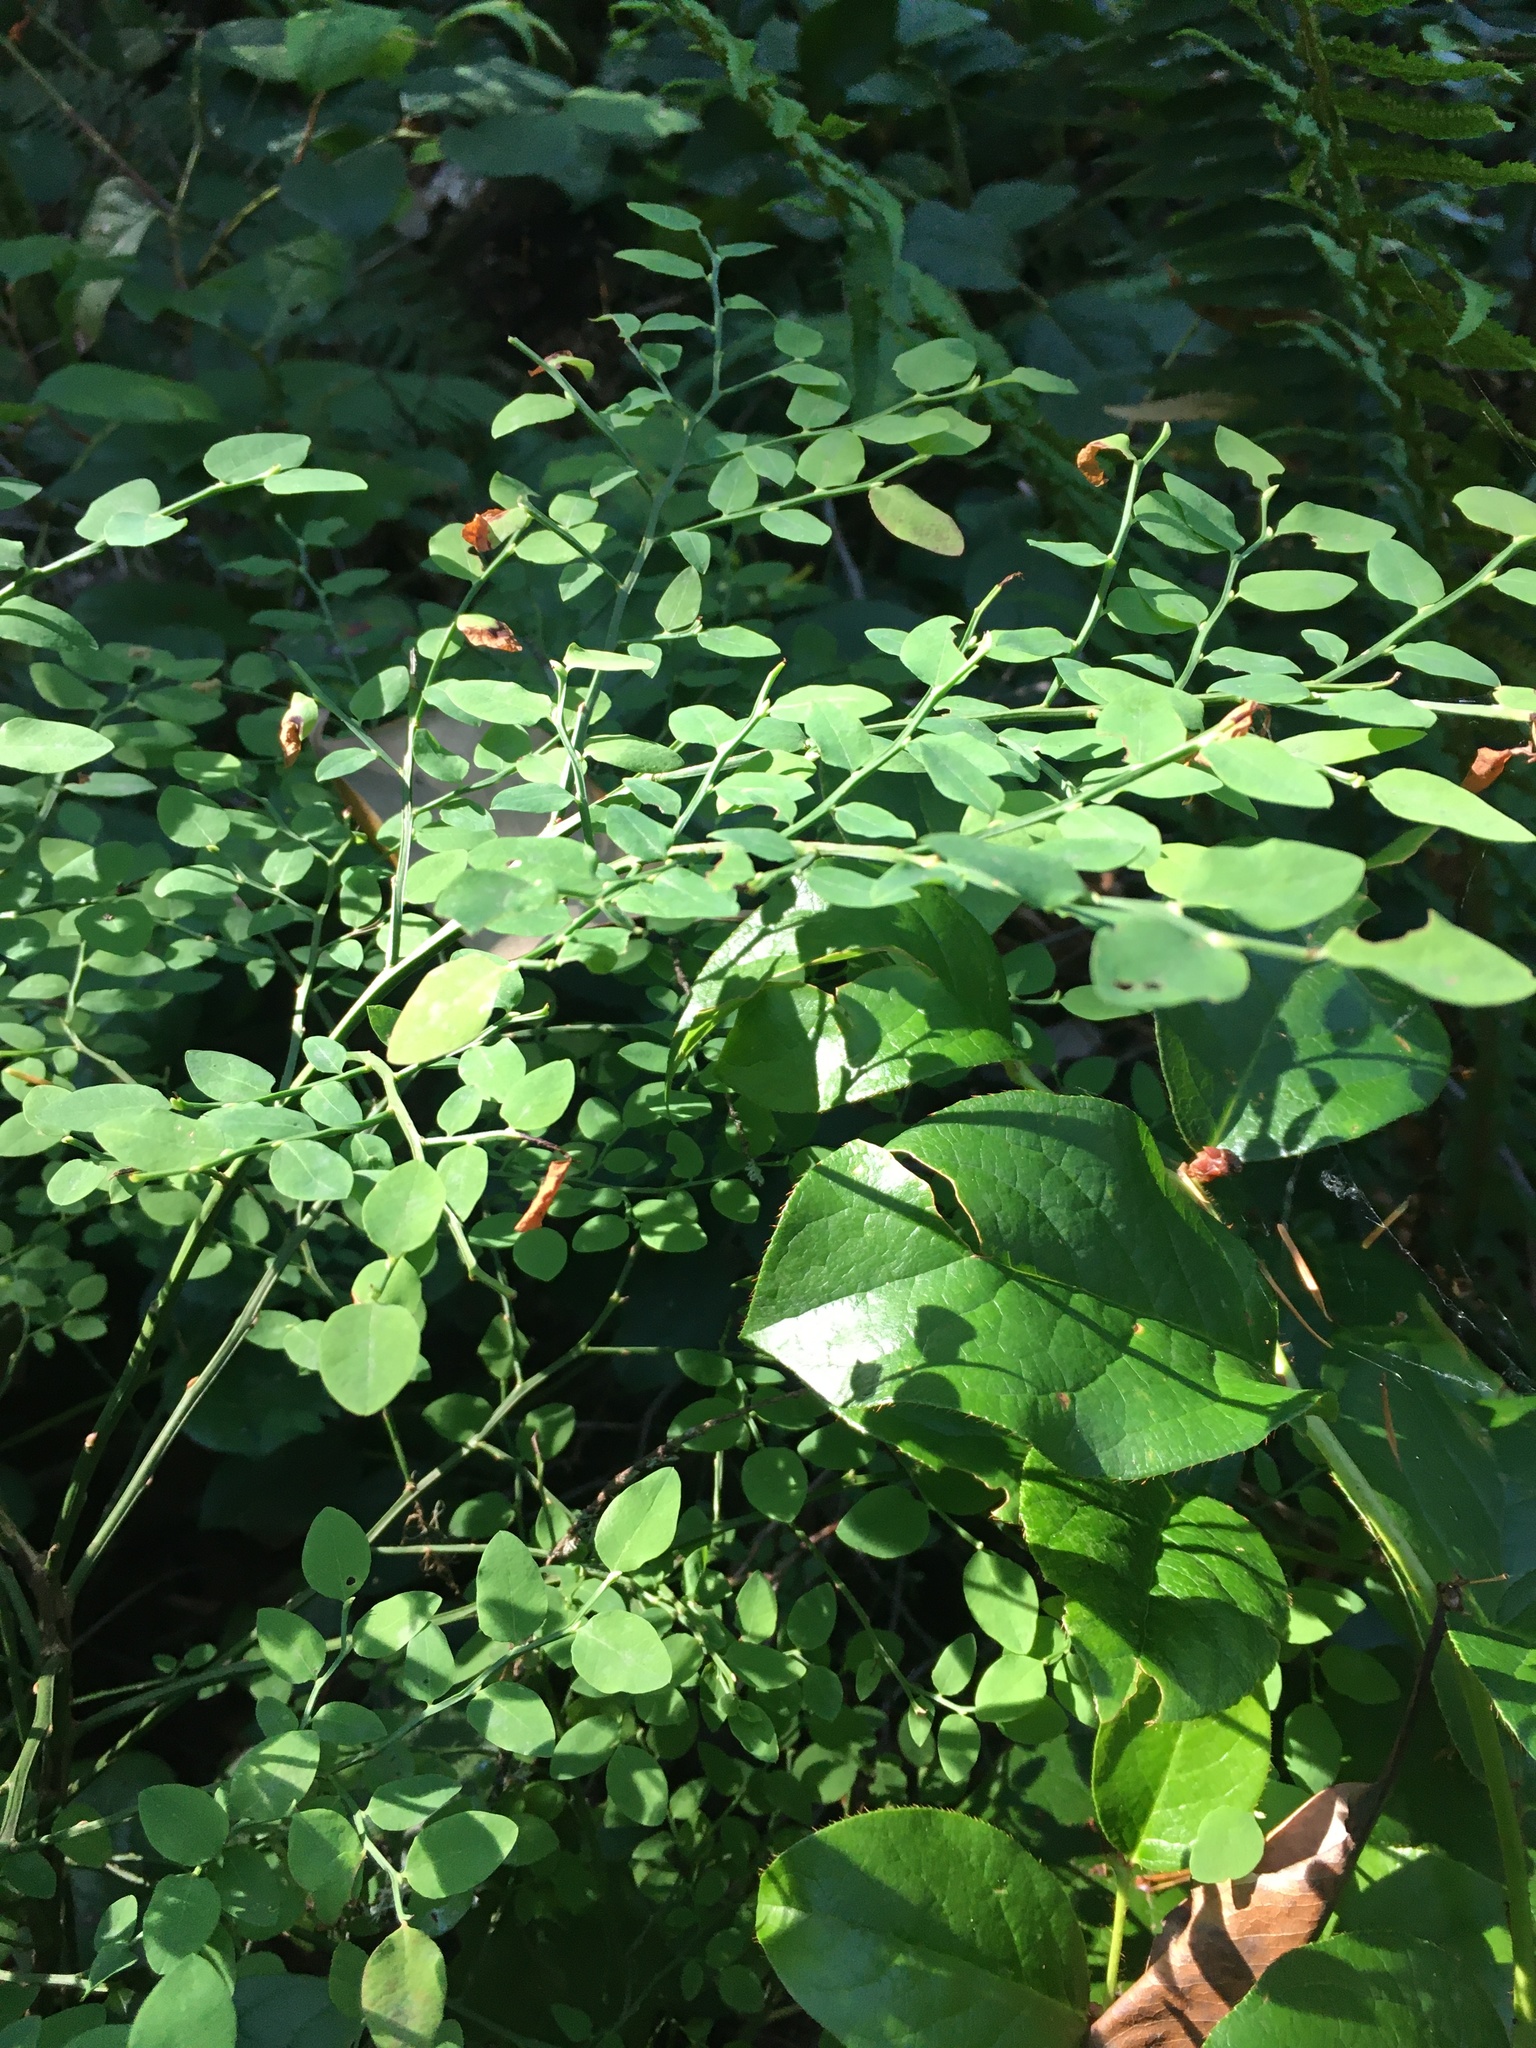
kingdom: Plantae
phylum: Tracheophyta
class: Magnoliopsida
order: Ericales
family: Ericaceae
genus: Vaccinium
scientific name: Vaccinium parvifolium
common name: Red-huckleberry
